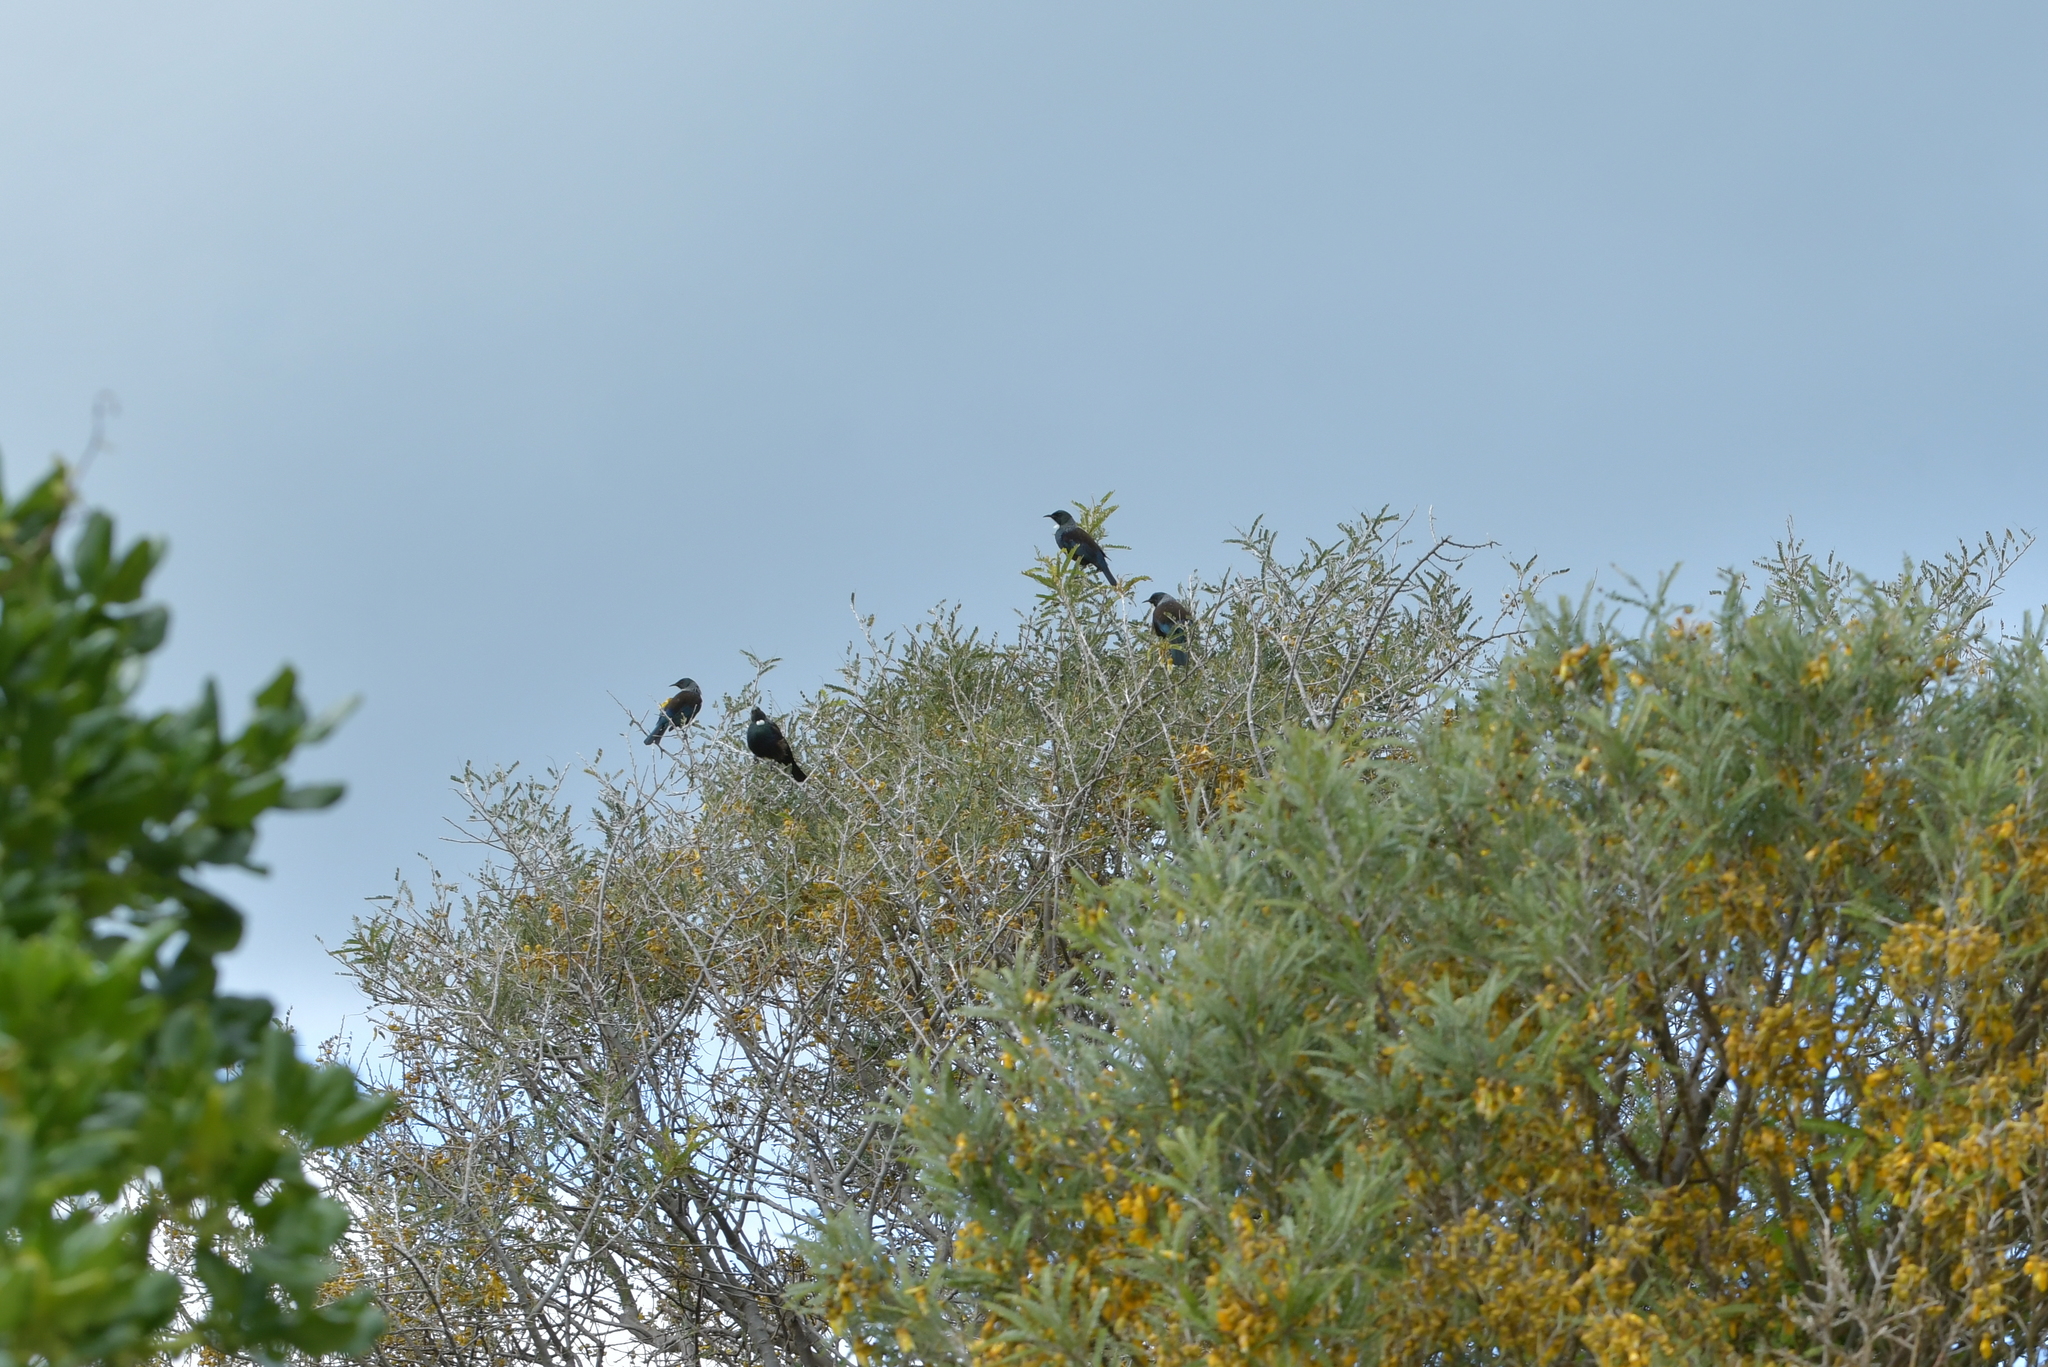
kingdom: Animalia
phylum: Chordata
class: Aves
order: Passeriformes
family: Meliphagidae
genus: Prosthemadera
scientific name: Prosthemadera novaeseelandiae
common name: Tui
